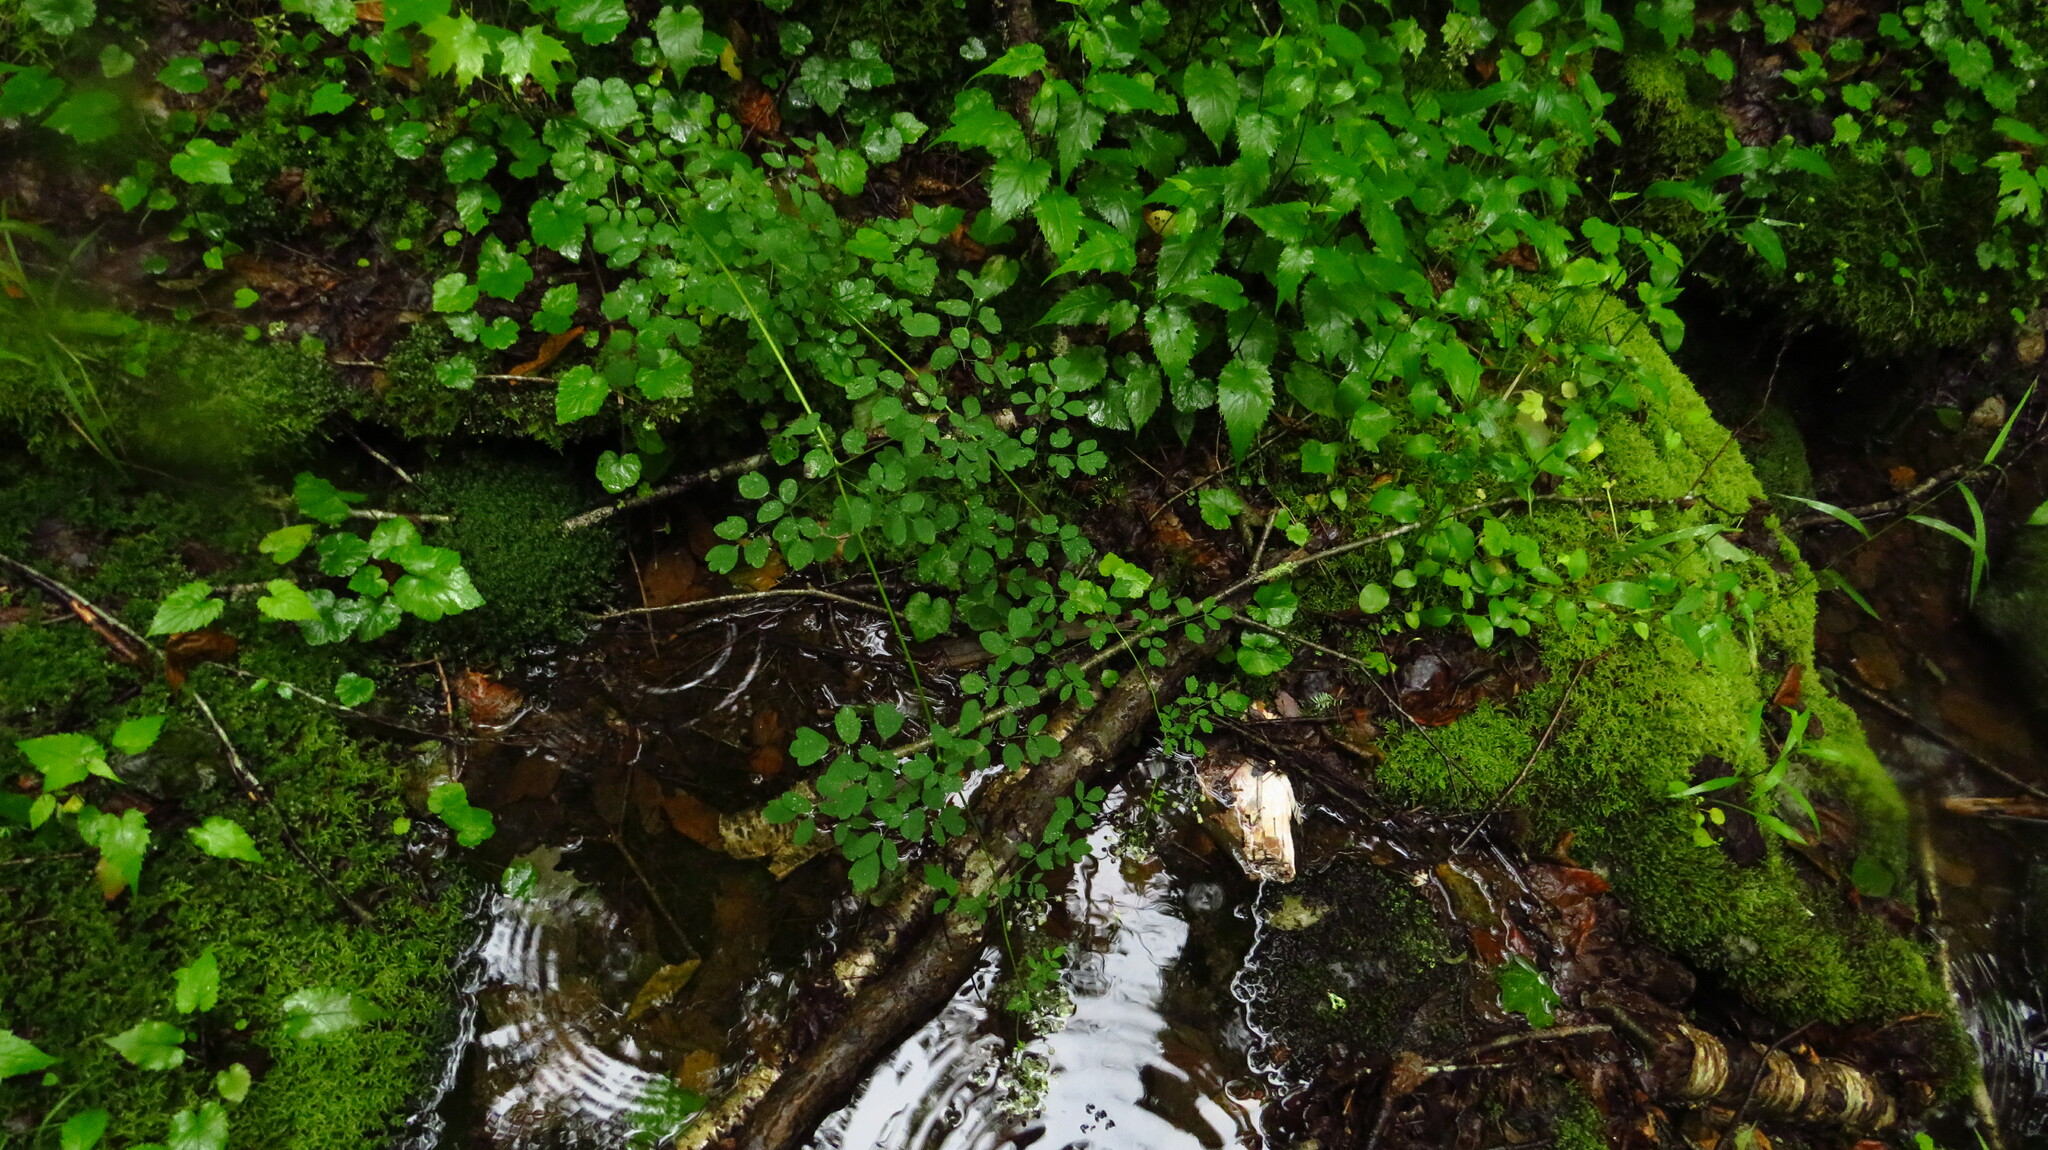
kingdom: Plantae
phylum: Tracheophyta
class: Magnoliopsida
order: Ranunculales
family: Ranunculaceae
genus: Thalictrum
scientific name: Thalictrum pubescens
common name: King-of-the-meadow
